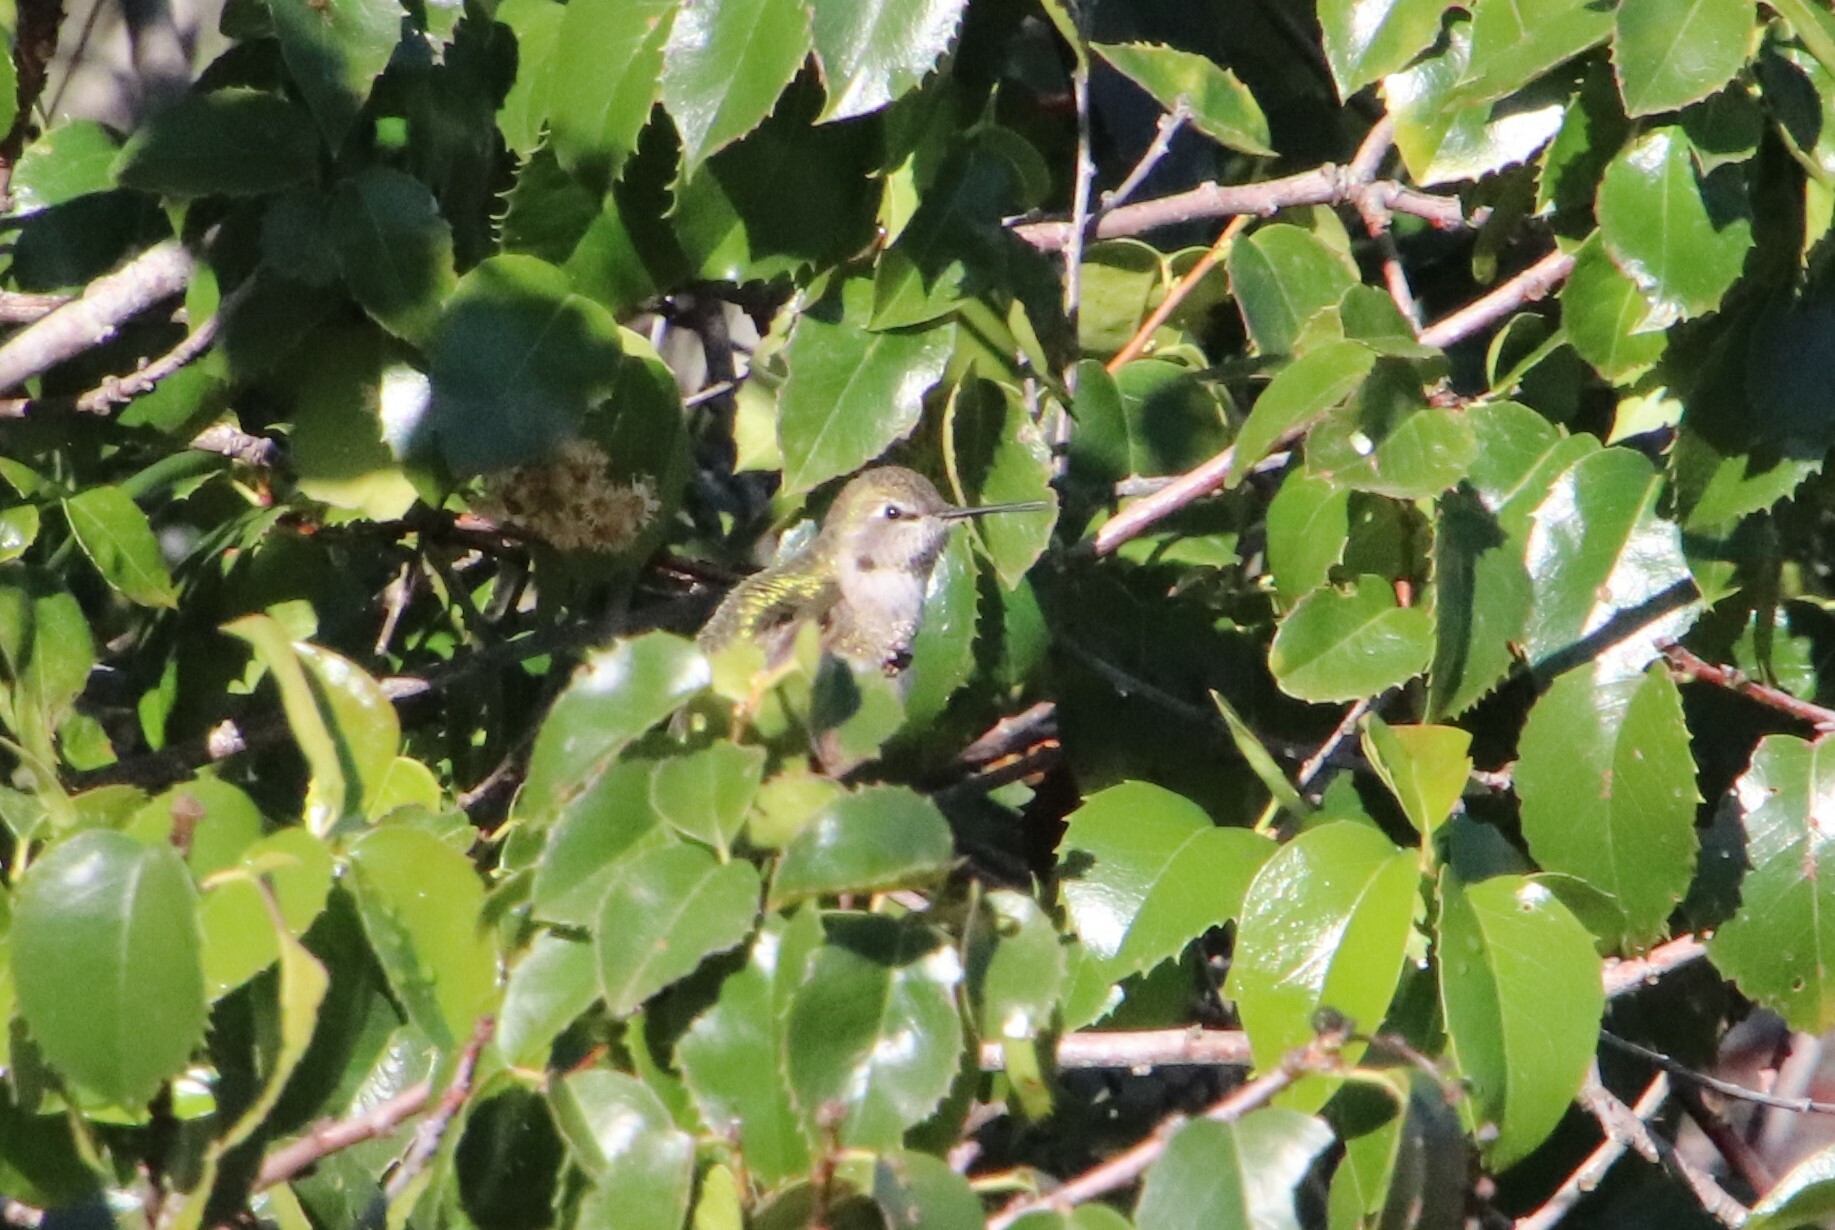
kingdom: Animalia
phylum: Chordata
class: Aves
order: Apodiformes
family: Trochilidae
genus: Calypte
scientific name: Calypte anna
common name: Anna's hummingbird
